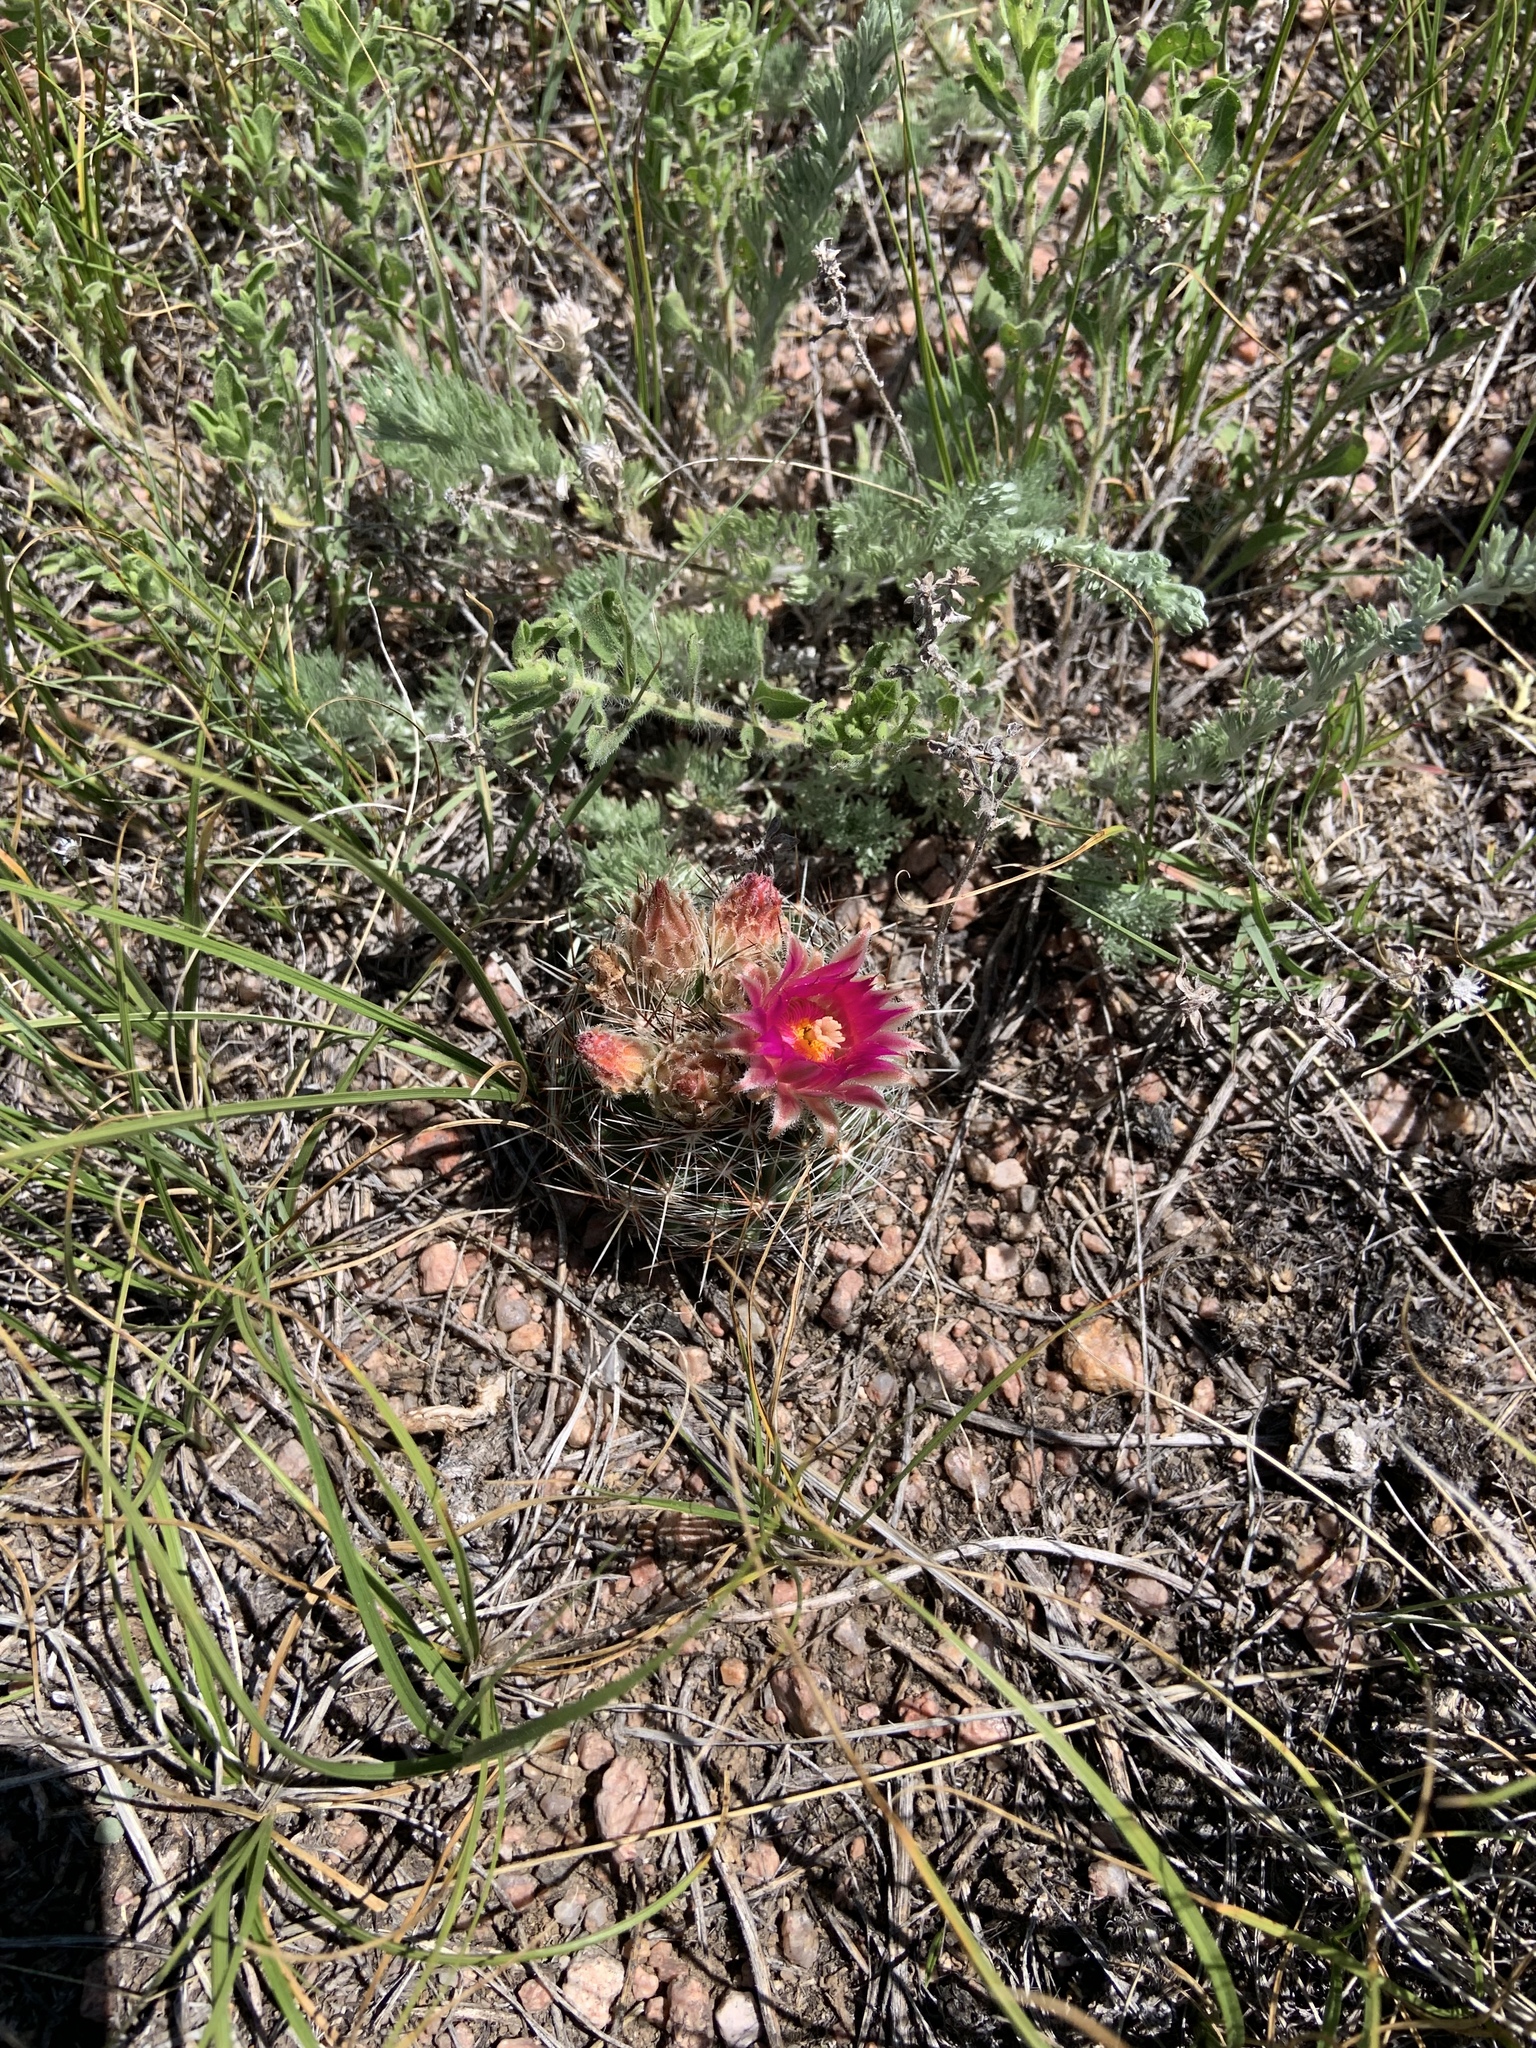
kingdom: Plantae
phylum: Tracheophyta
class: Magnoliopsida
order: Caryophyllales
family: Cactaceae
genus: Pelecyphora
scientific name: Pelecyphora vivipara
